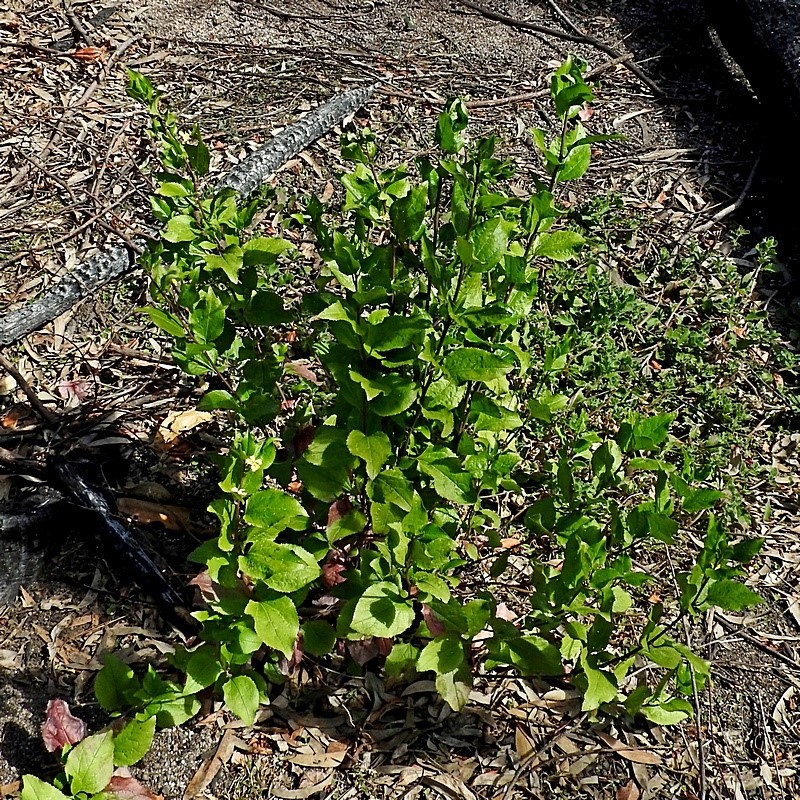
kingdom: Plantae
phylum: Tracheophyta
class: Magnoliopsida
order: Asterales
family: Goodeniaceae
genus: Goodenia
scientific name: Goodenia ovata
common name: Hop goodenia
